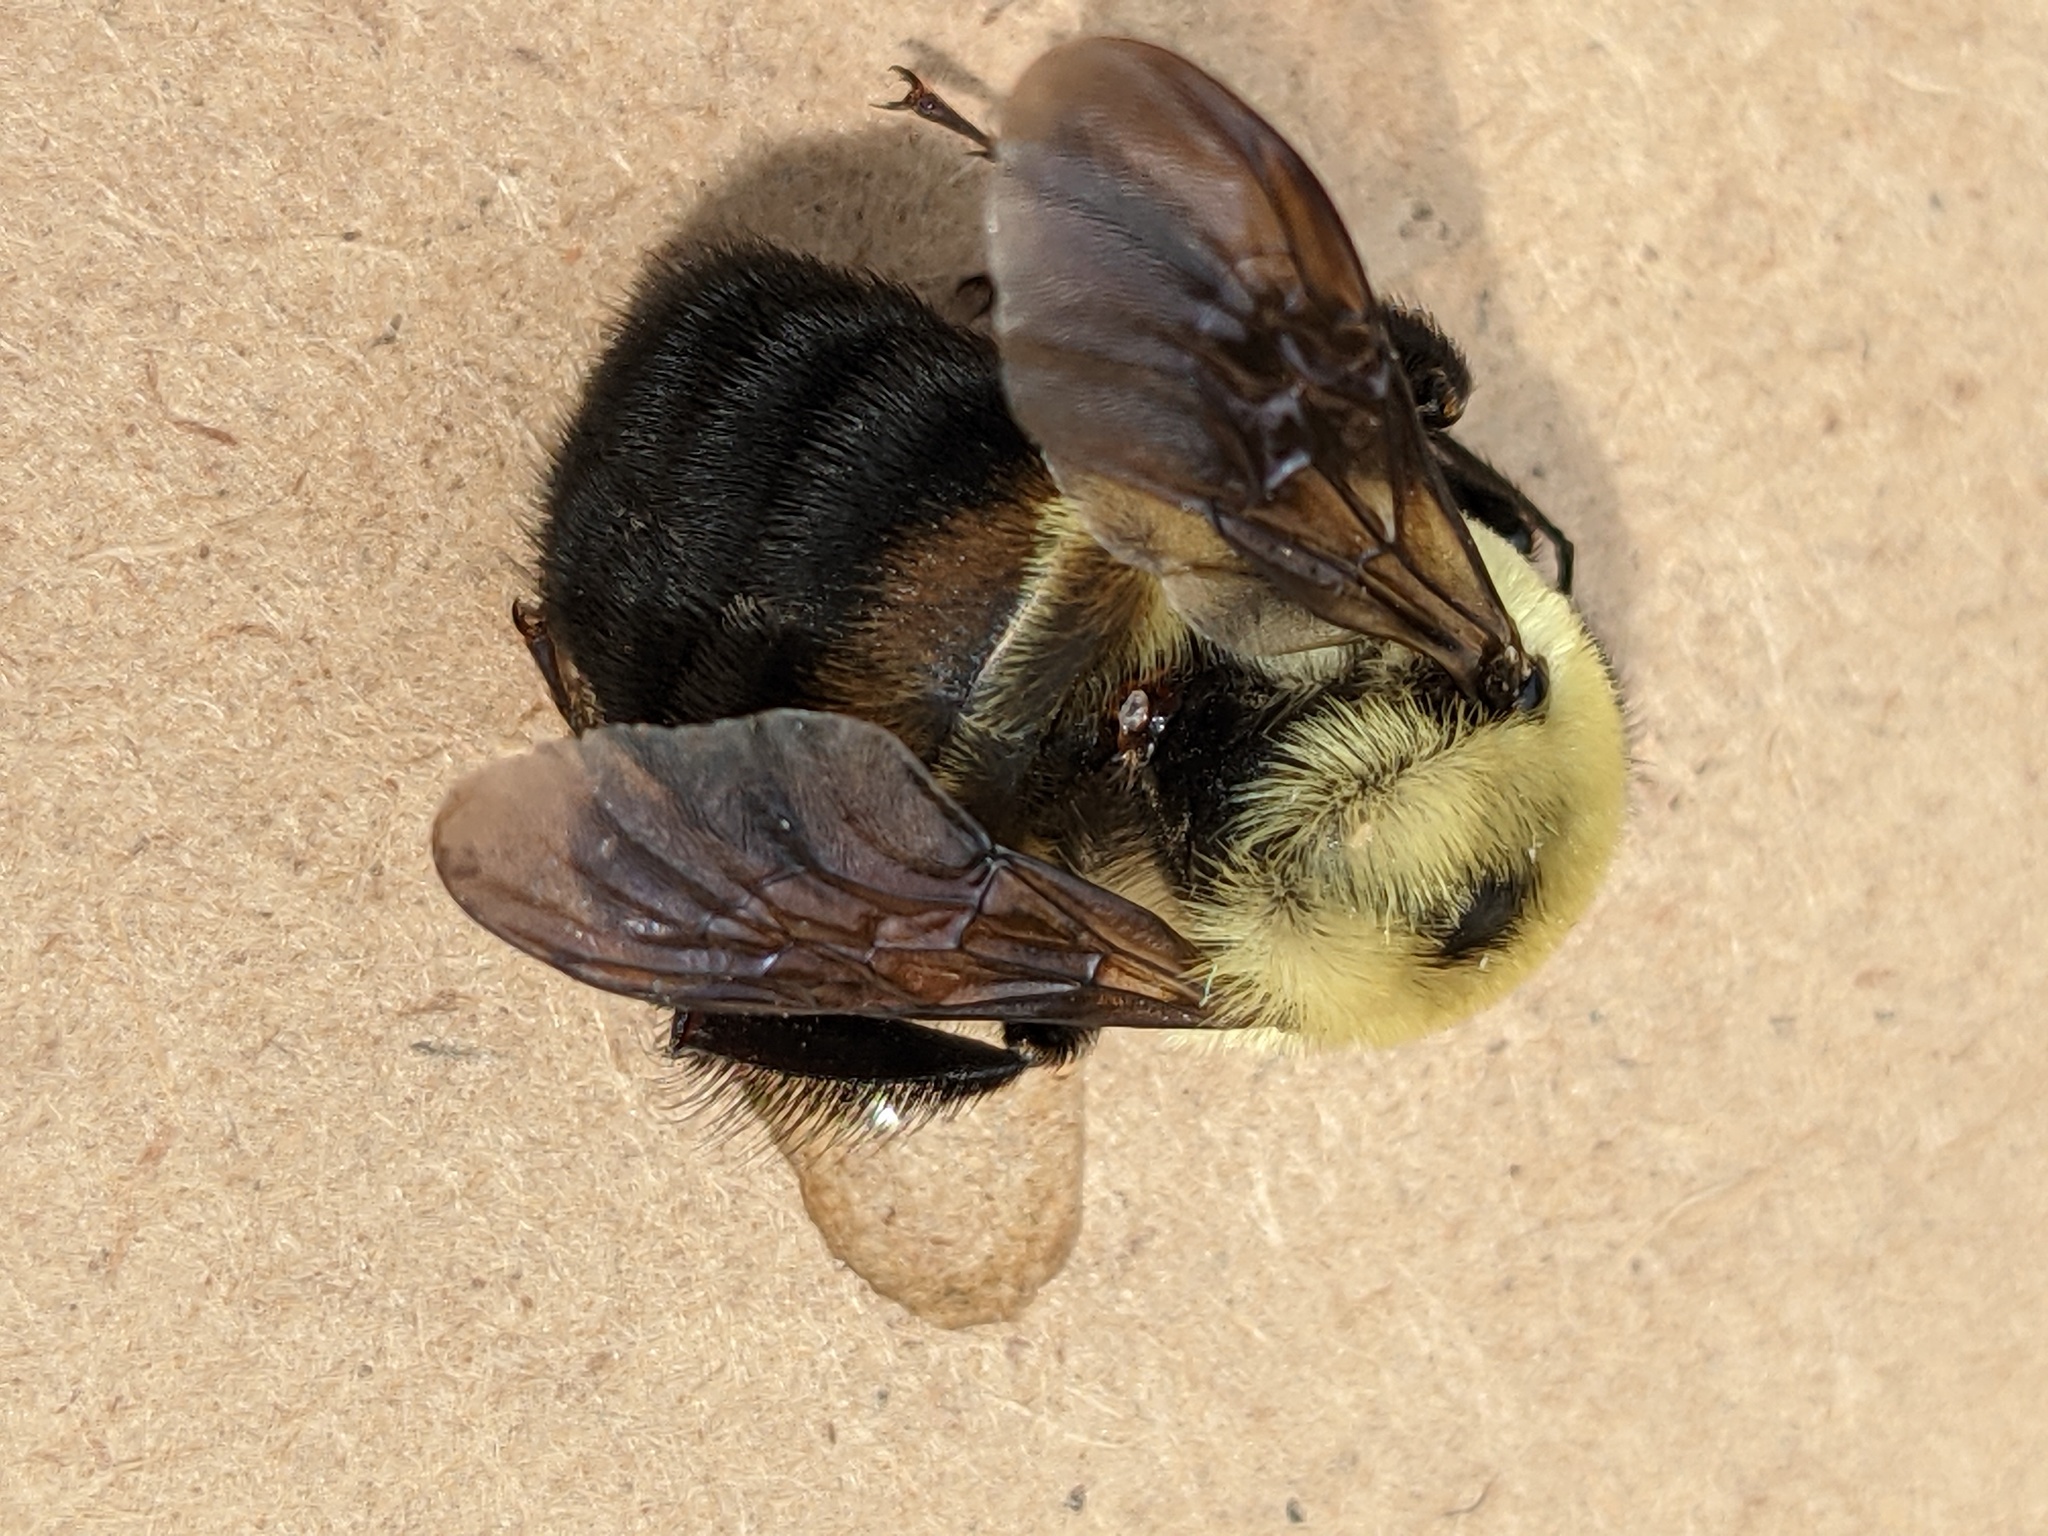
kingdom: Animalia
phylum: Arthropoda
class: Insecta
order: Hymenoptera
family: Apidae
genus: Bombus
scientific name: Bombus griseocollis
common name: Brown-belted bumble bee
